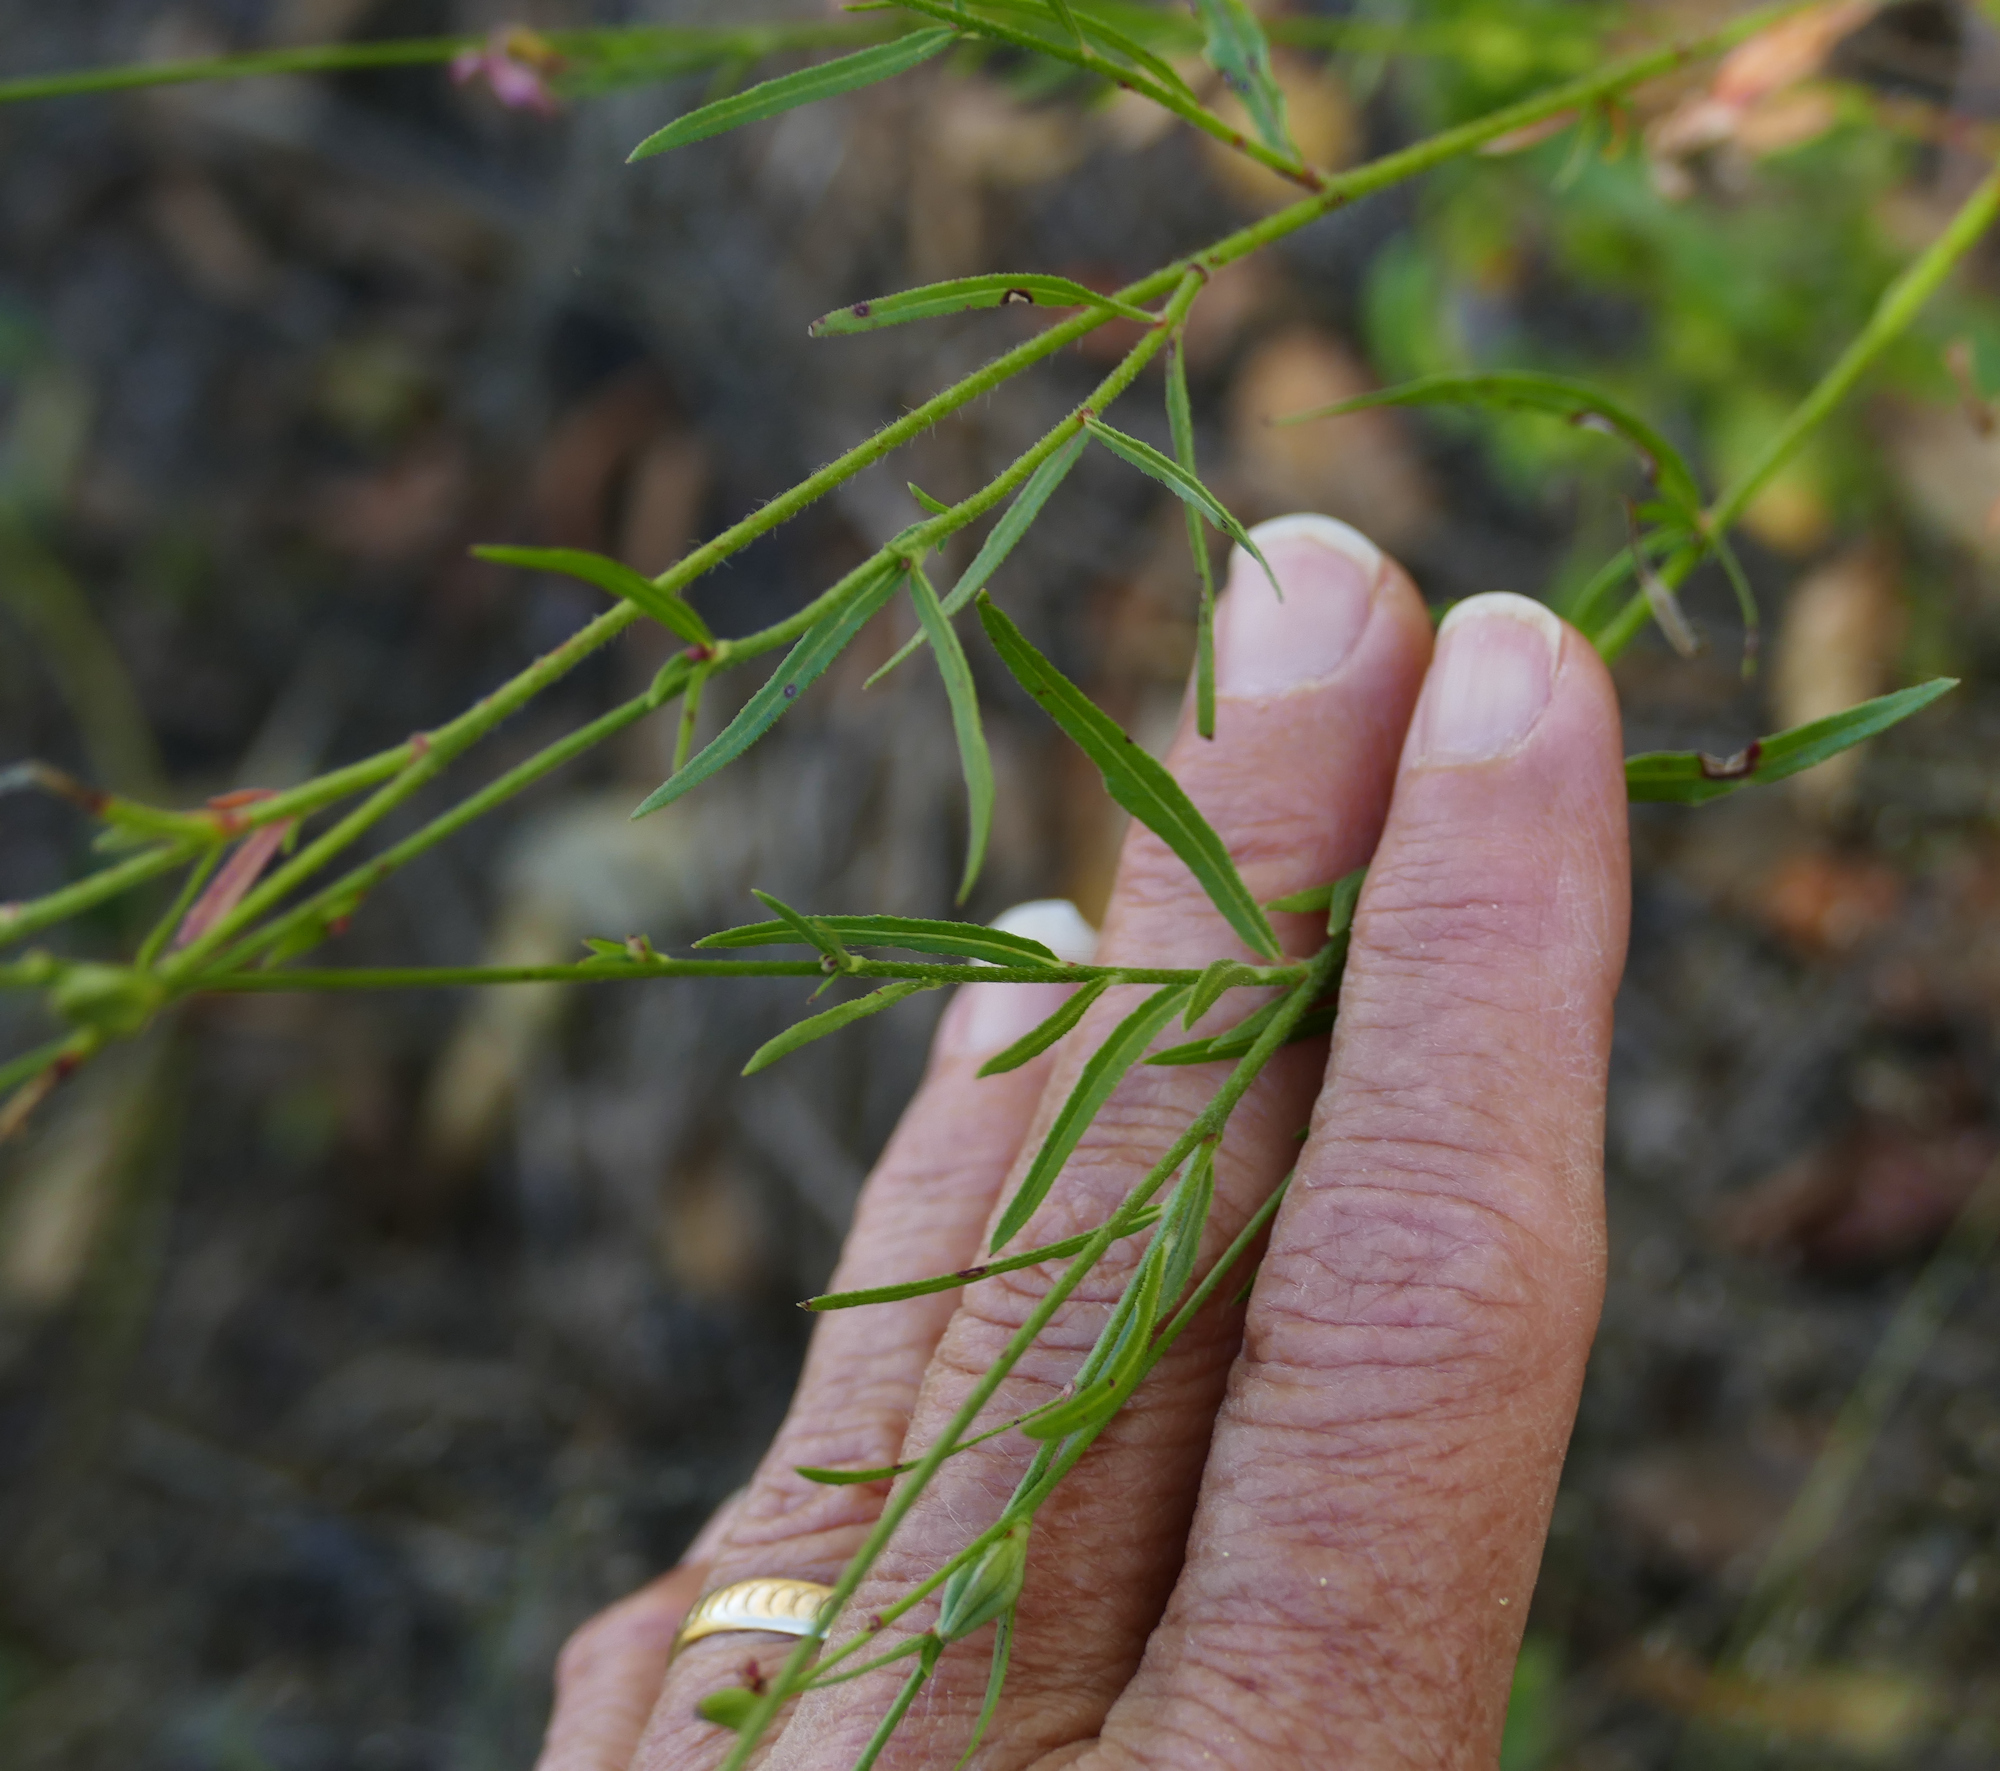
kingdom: Plantae
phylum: Tracheophyta
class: Magnoliopsida
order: Myrtales
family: Onagraceae
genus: Oenothera
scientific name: Oenothera podocarpa
